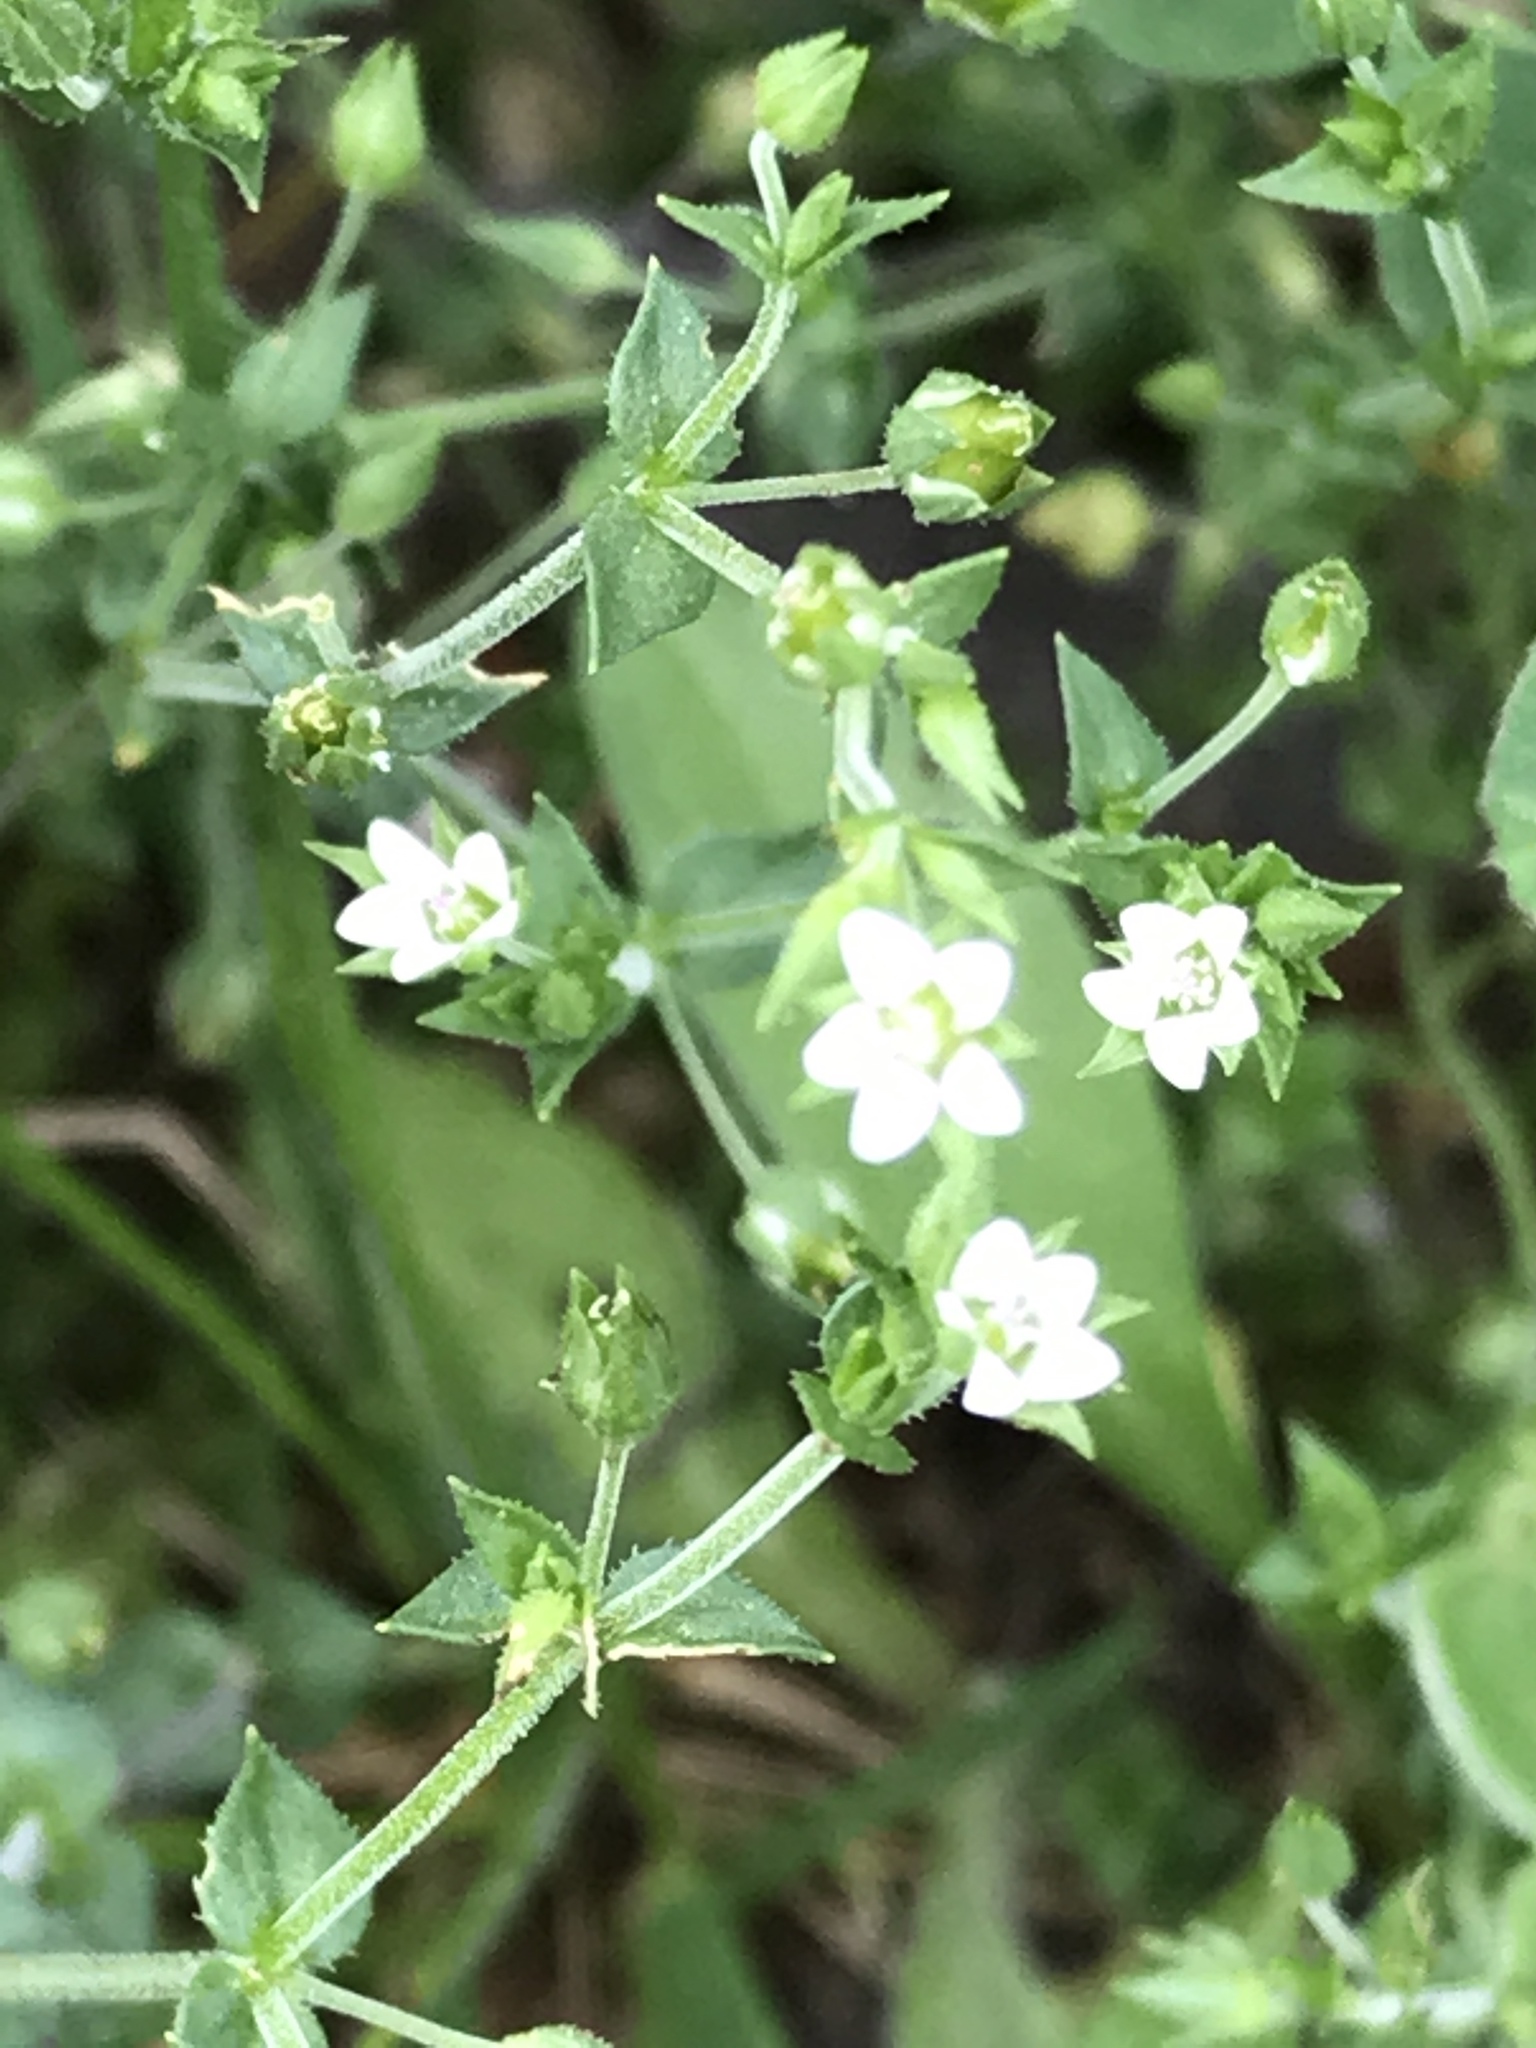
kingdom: Plantae
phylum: Tracheophyta
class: Magnoliopsida
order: Caryophyllales
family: Caryophyllaceae
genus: Arenaria
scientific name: Arenaria serpyllifolia
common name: Thyme-leaved sandwort
